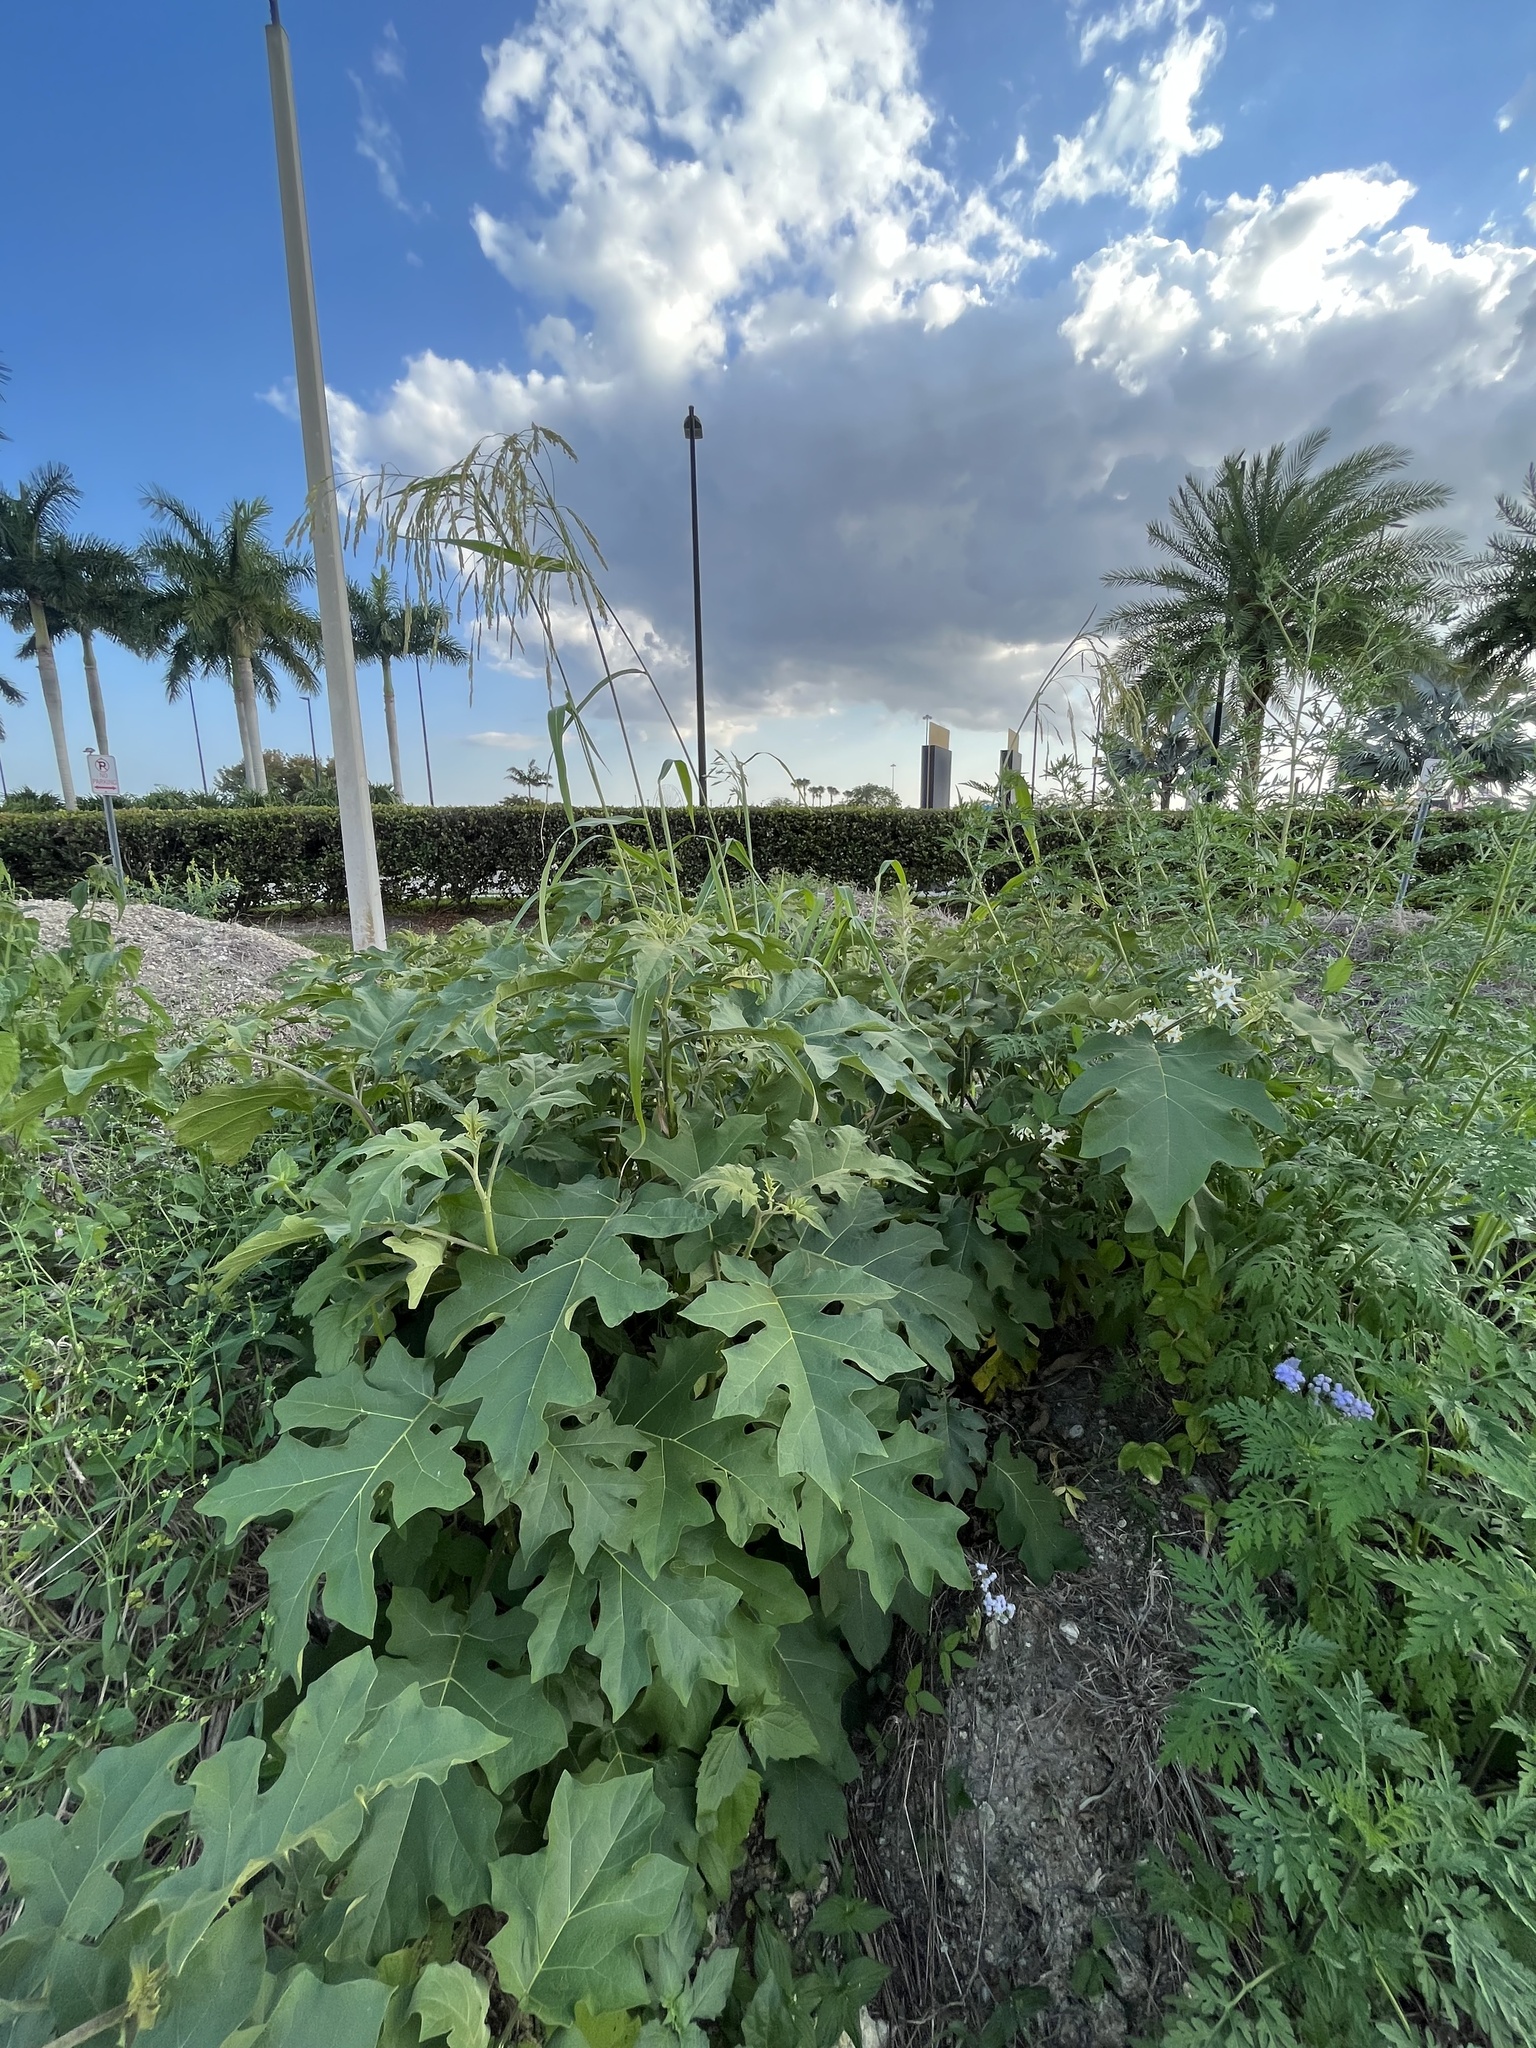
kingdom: Plantae
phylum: Tracheophyta
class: Magnoliopsida
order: Solanales
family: Solanaceae
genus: Solanum
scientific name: Solanum torvum
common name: Turkey berry
